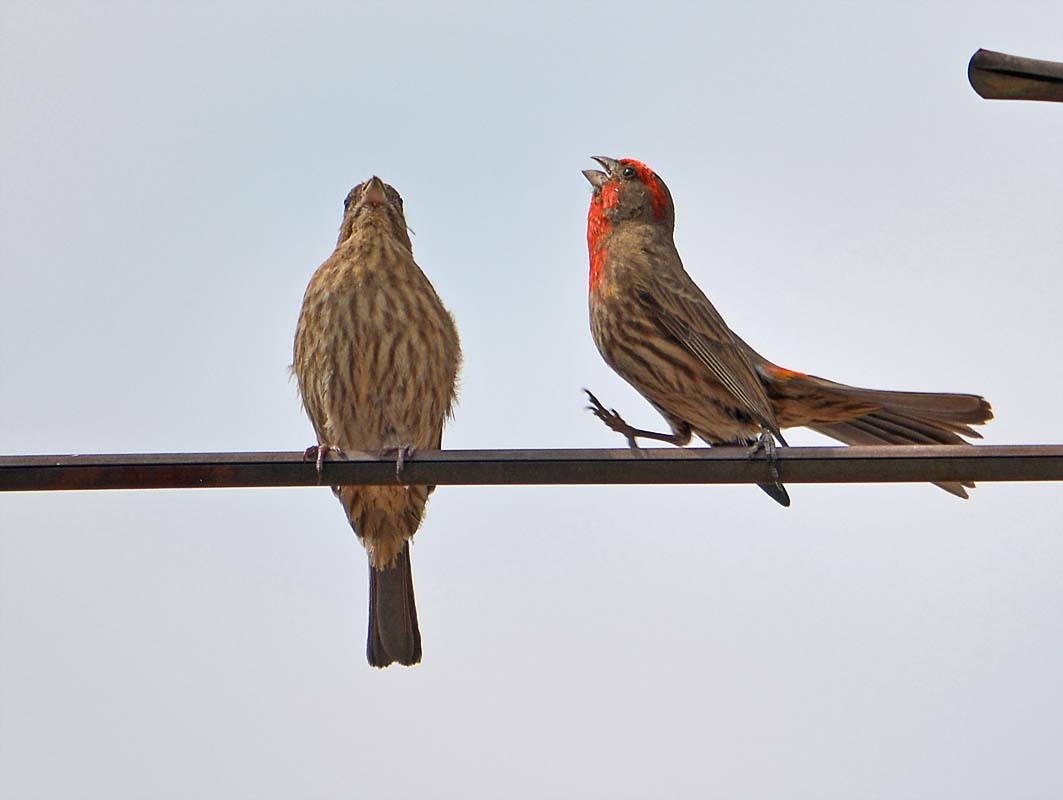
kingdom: Animalia
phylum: Chordata
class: Aves
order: Passeriformes
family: Fringillidae
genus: Haemorhous
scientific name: Haemorhous mexicanus
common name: House finch
